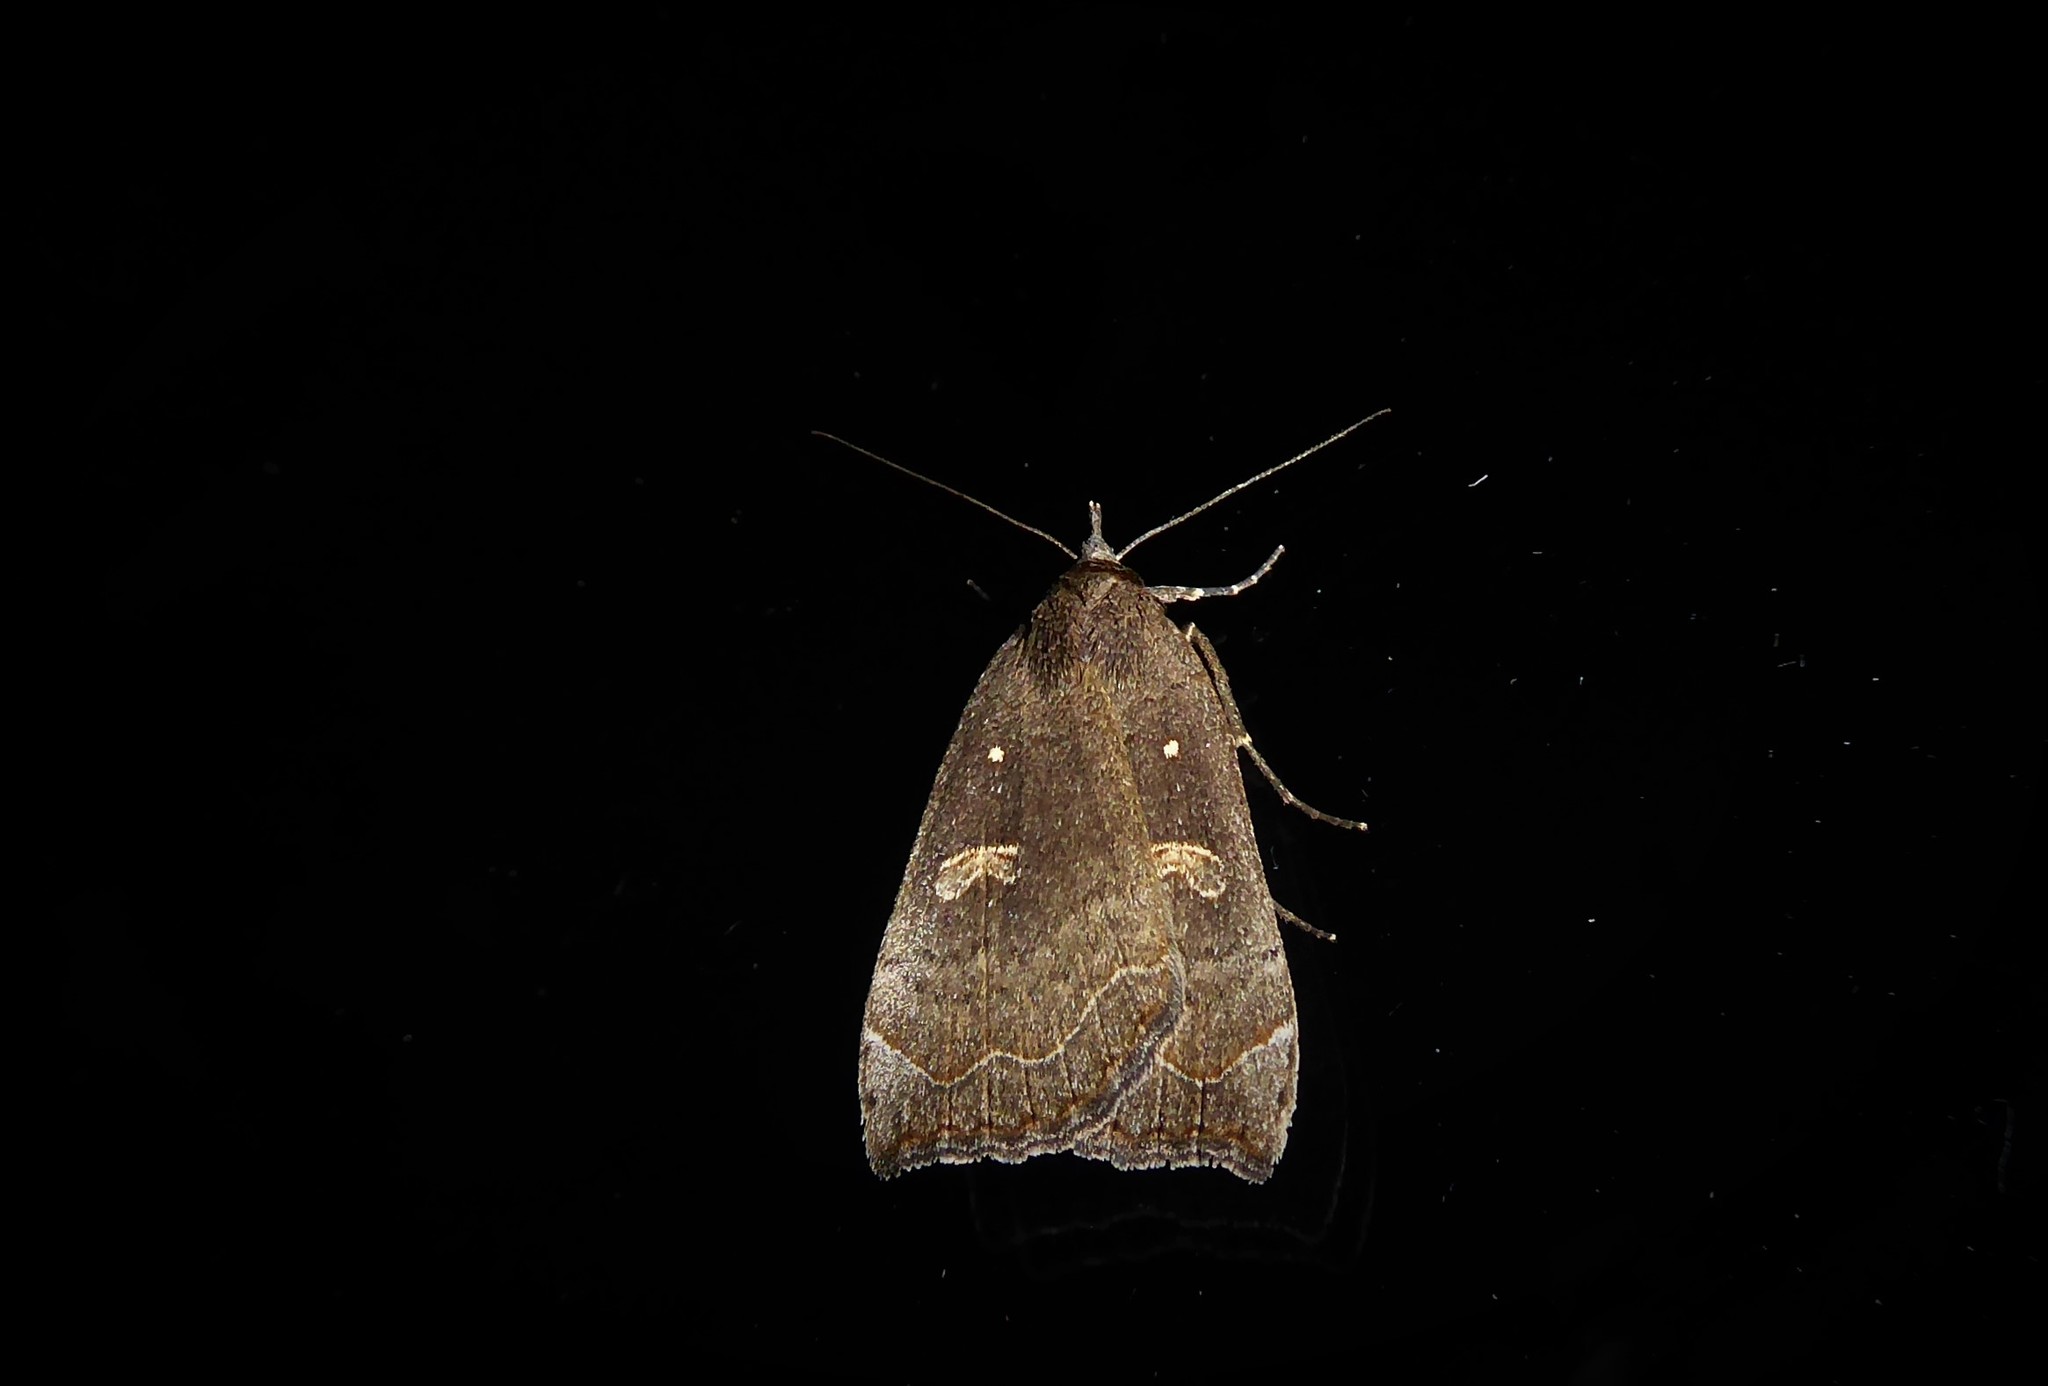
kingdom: Animalia
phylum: Arthropoda
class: Insecta
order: Lepidoptera
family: Erebidae
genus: Rhapsa
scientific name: Rhapsa scotosialis
